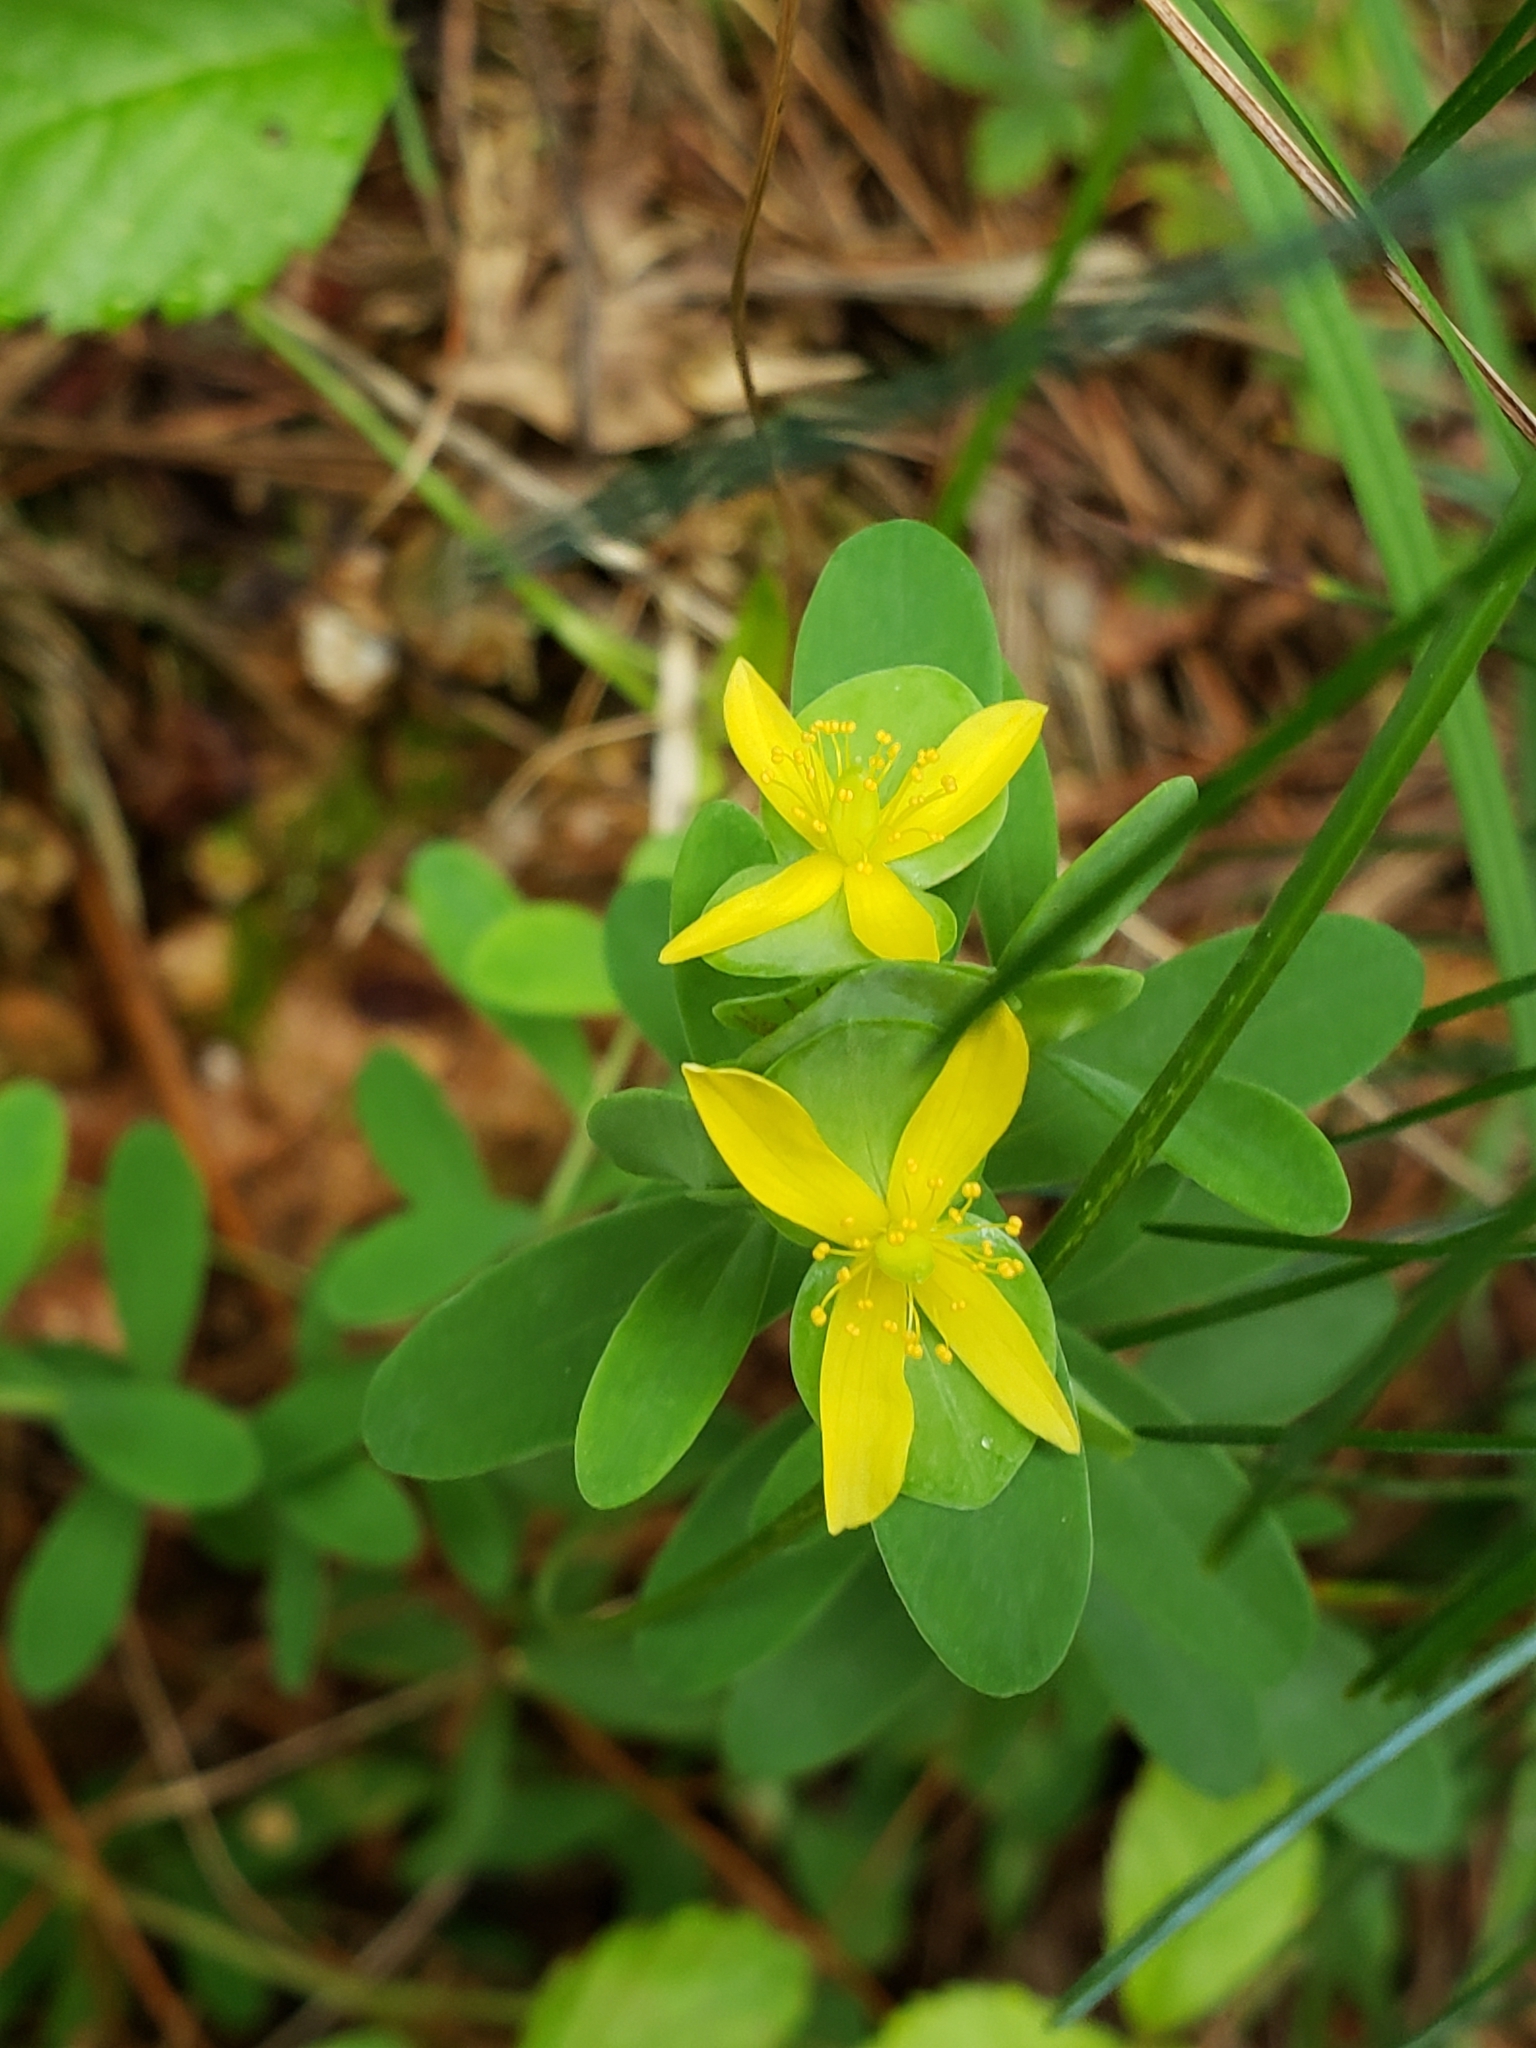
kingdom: Plantae
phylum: Tracheophyta
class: Magnoliopsida
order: Malpighiales
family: Hypericaceae
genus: Hypericum
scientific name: Hypericum hypericoides
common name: St. andrew's cross
